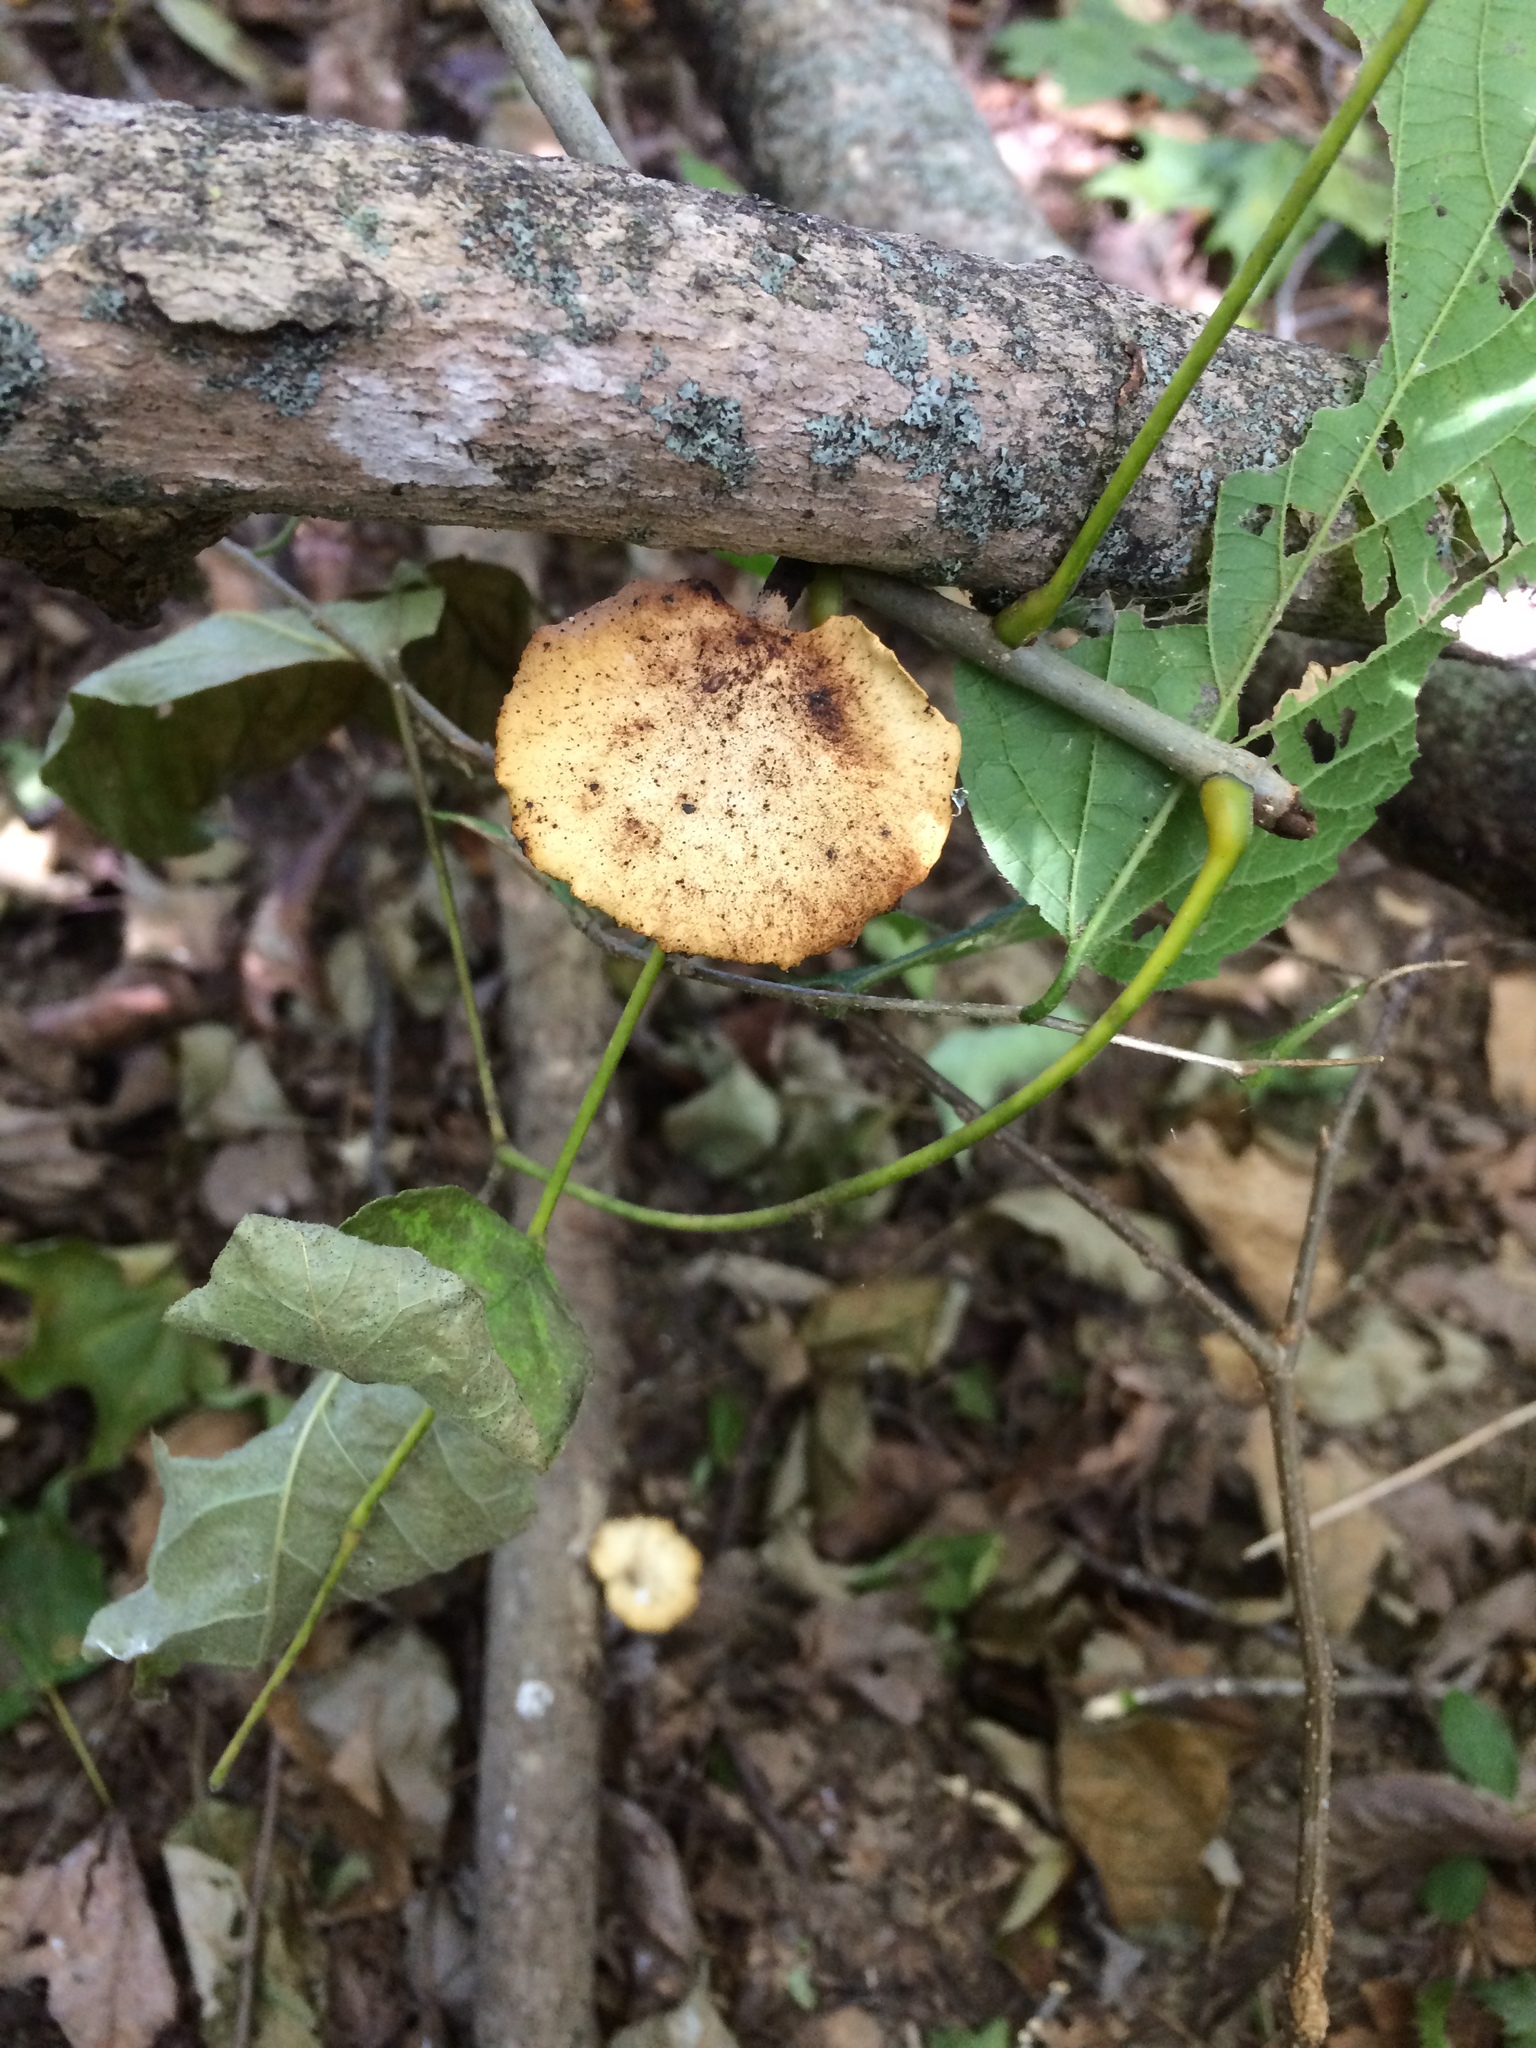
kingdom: Fungi
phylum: Basidiomycota
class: Agaricomycetes
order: Polyporales
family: Polyporaceae
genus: Cerioporus
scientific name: Cerioporus leptocephalus
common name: Blackfoot polypore
